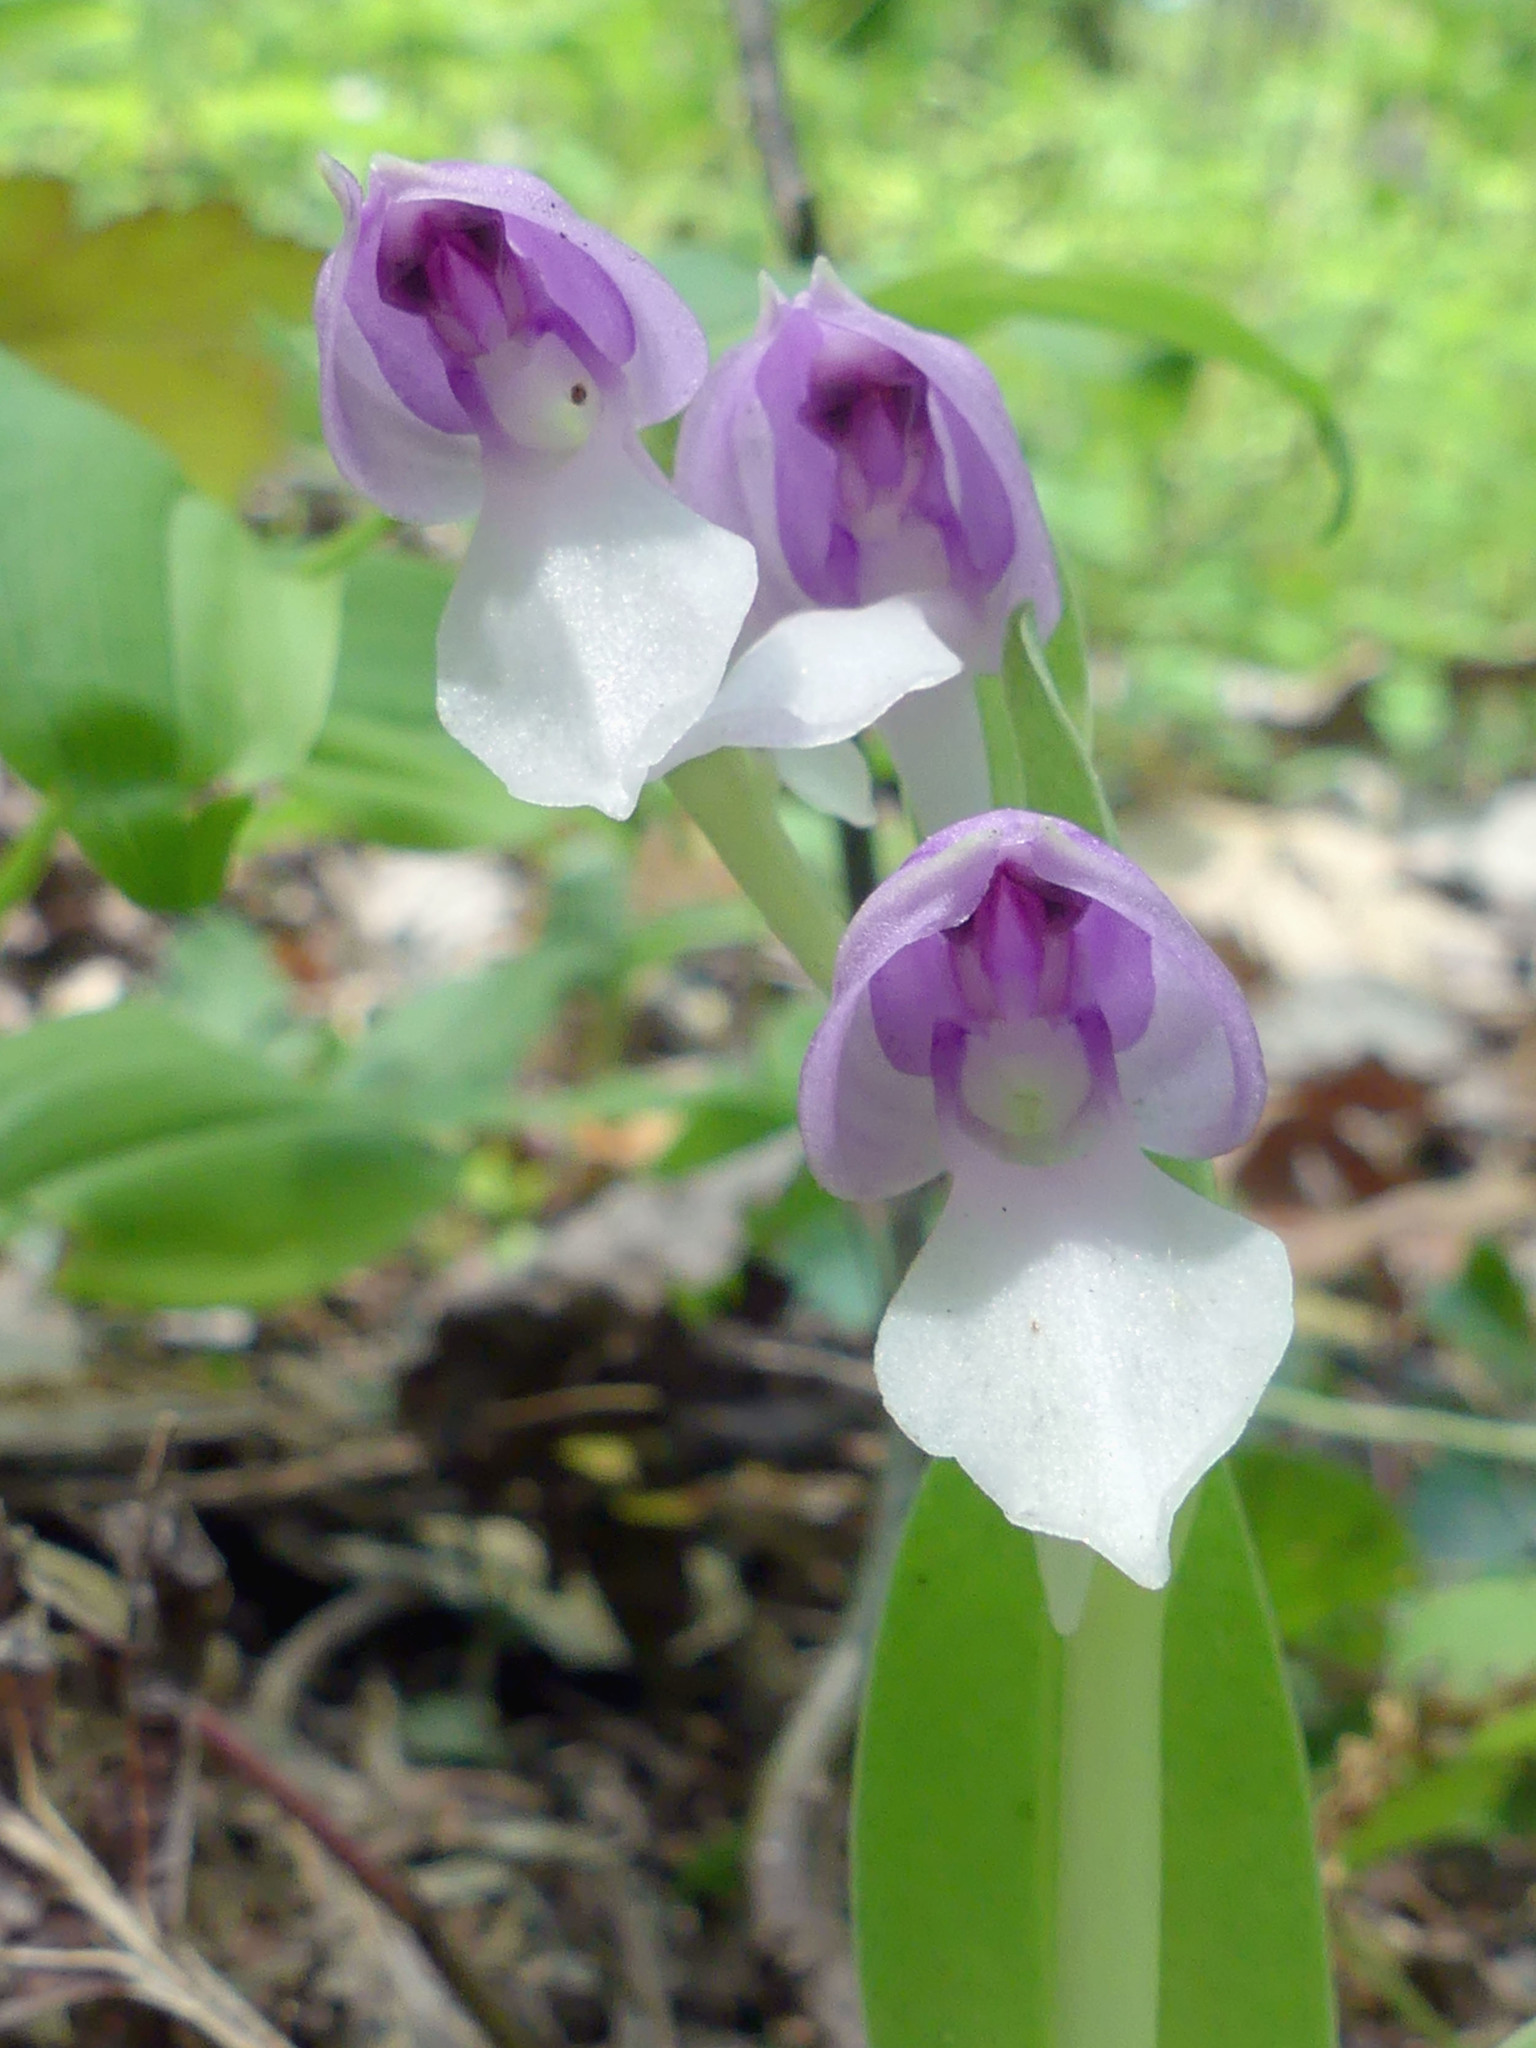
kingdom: Plantae
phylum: Tracheophyta
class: Liliopsida
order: Asparagales
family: Orchidaceae
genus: Galearis
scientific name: Galearis spectabilis
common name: Purple-hooded orchis
